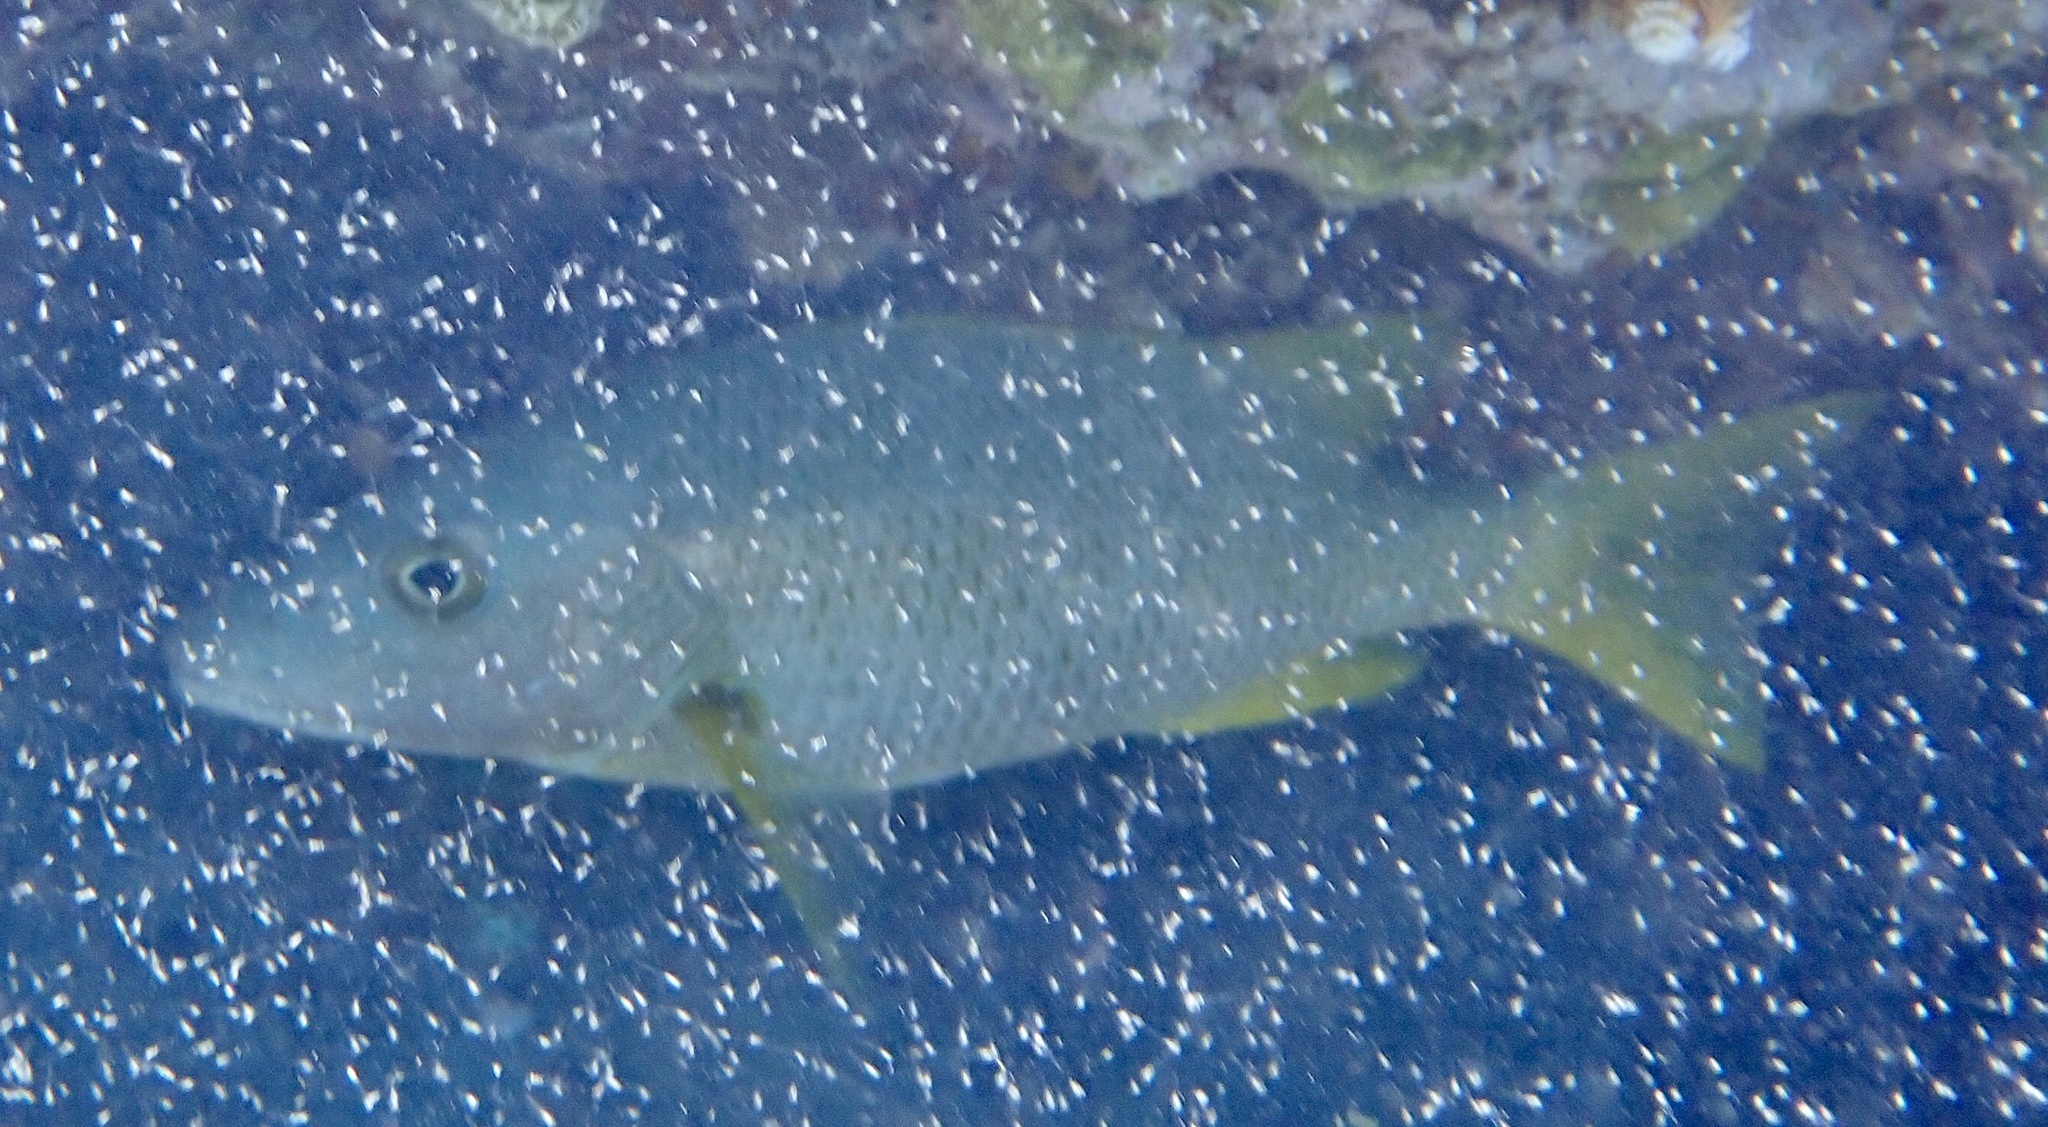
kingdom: Animalia
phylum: Chordata
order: Perciformes
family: Lutjanidae
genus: Lutjanus
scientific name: Lutjanus apodus
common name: Schoolmaster
